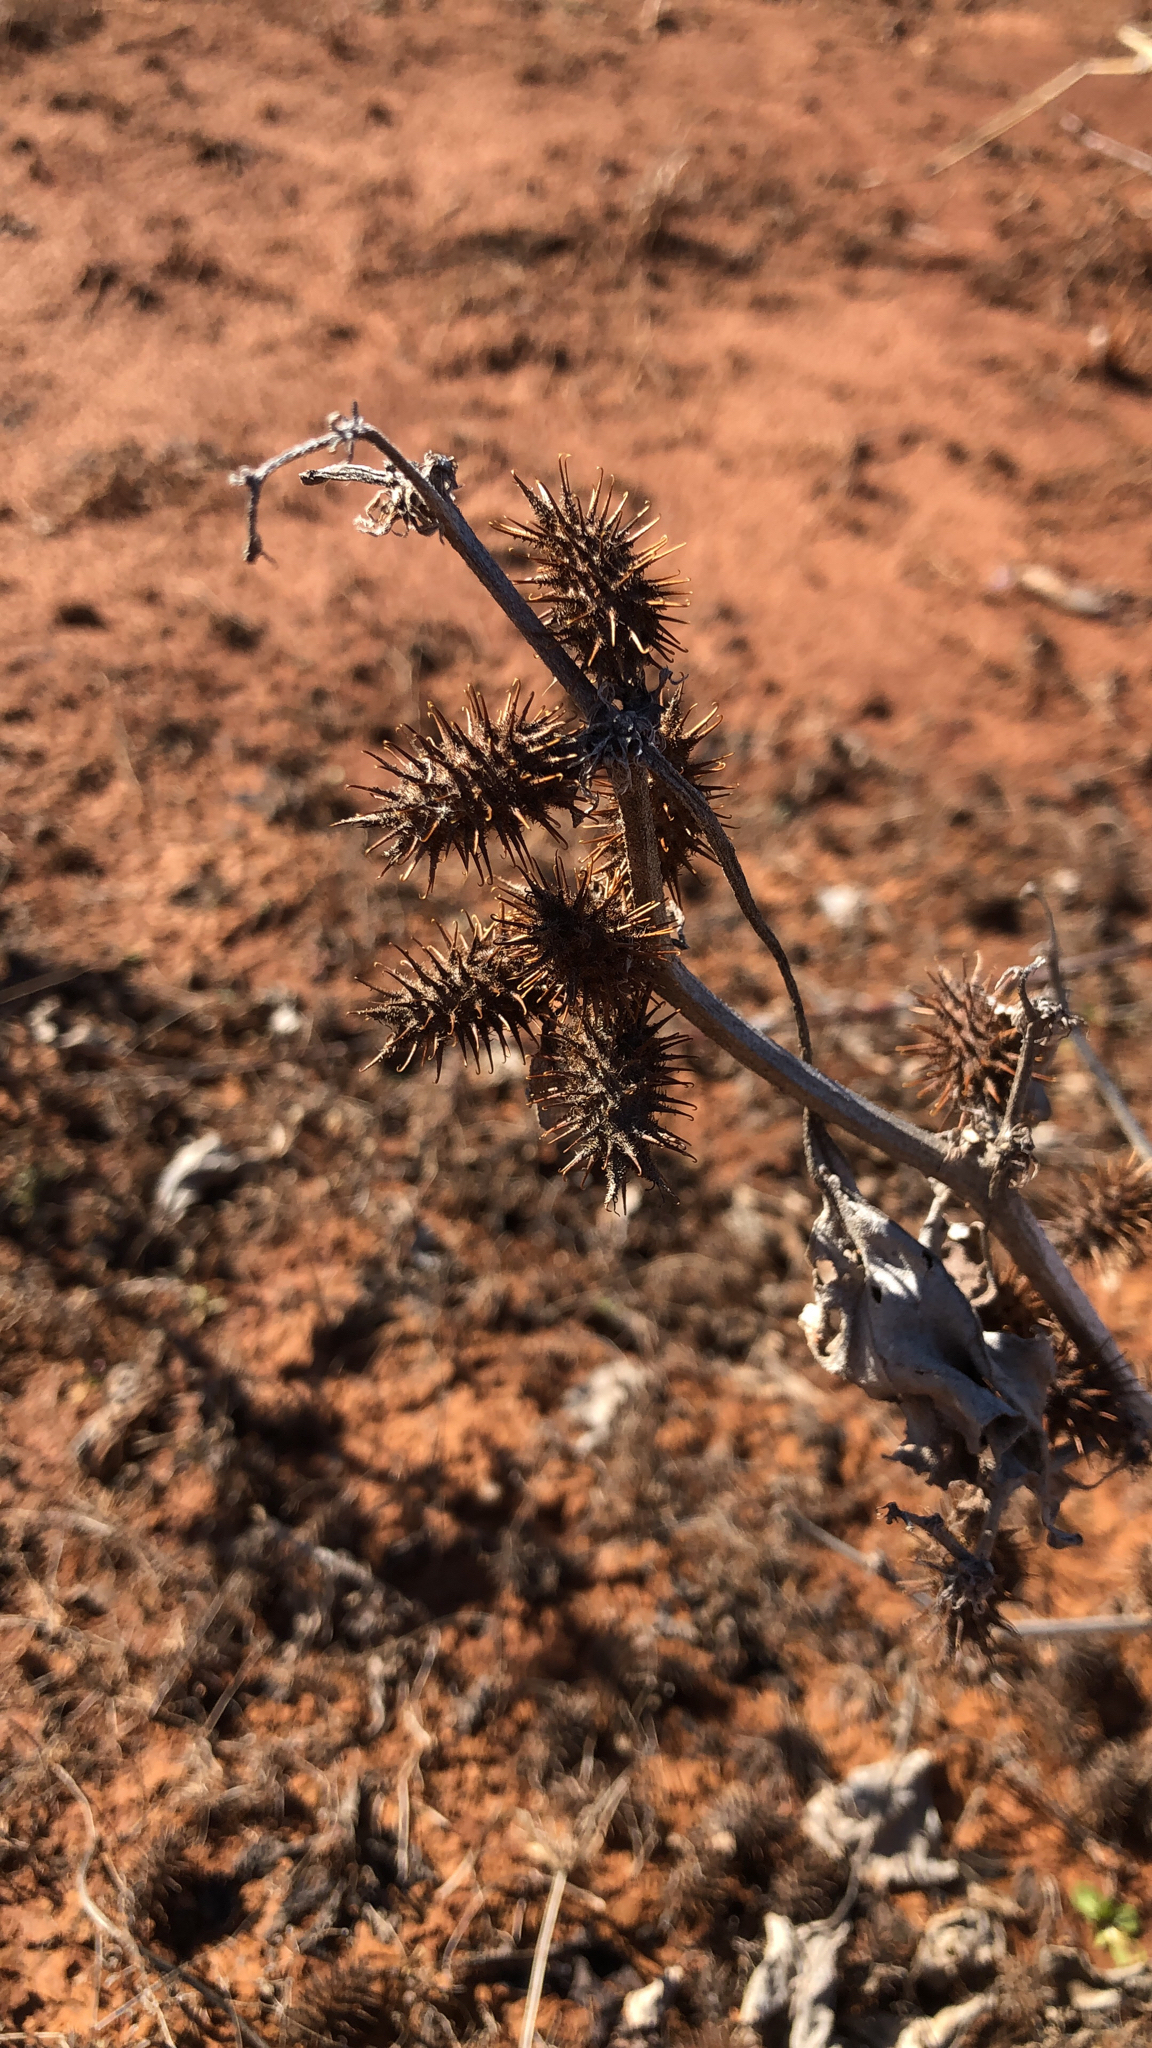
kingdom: Plantae
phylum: Tracheophyta
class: Magnoliopsida
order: Asterales
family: Asteraceae
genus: Xanthium
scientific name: Xanthium strumarium
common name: Rough cocklebur
